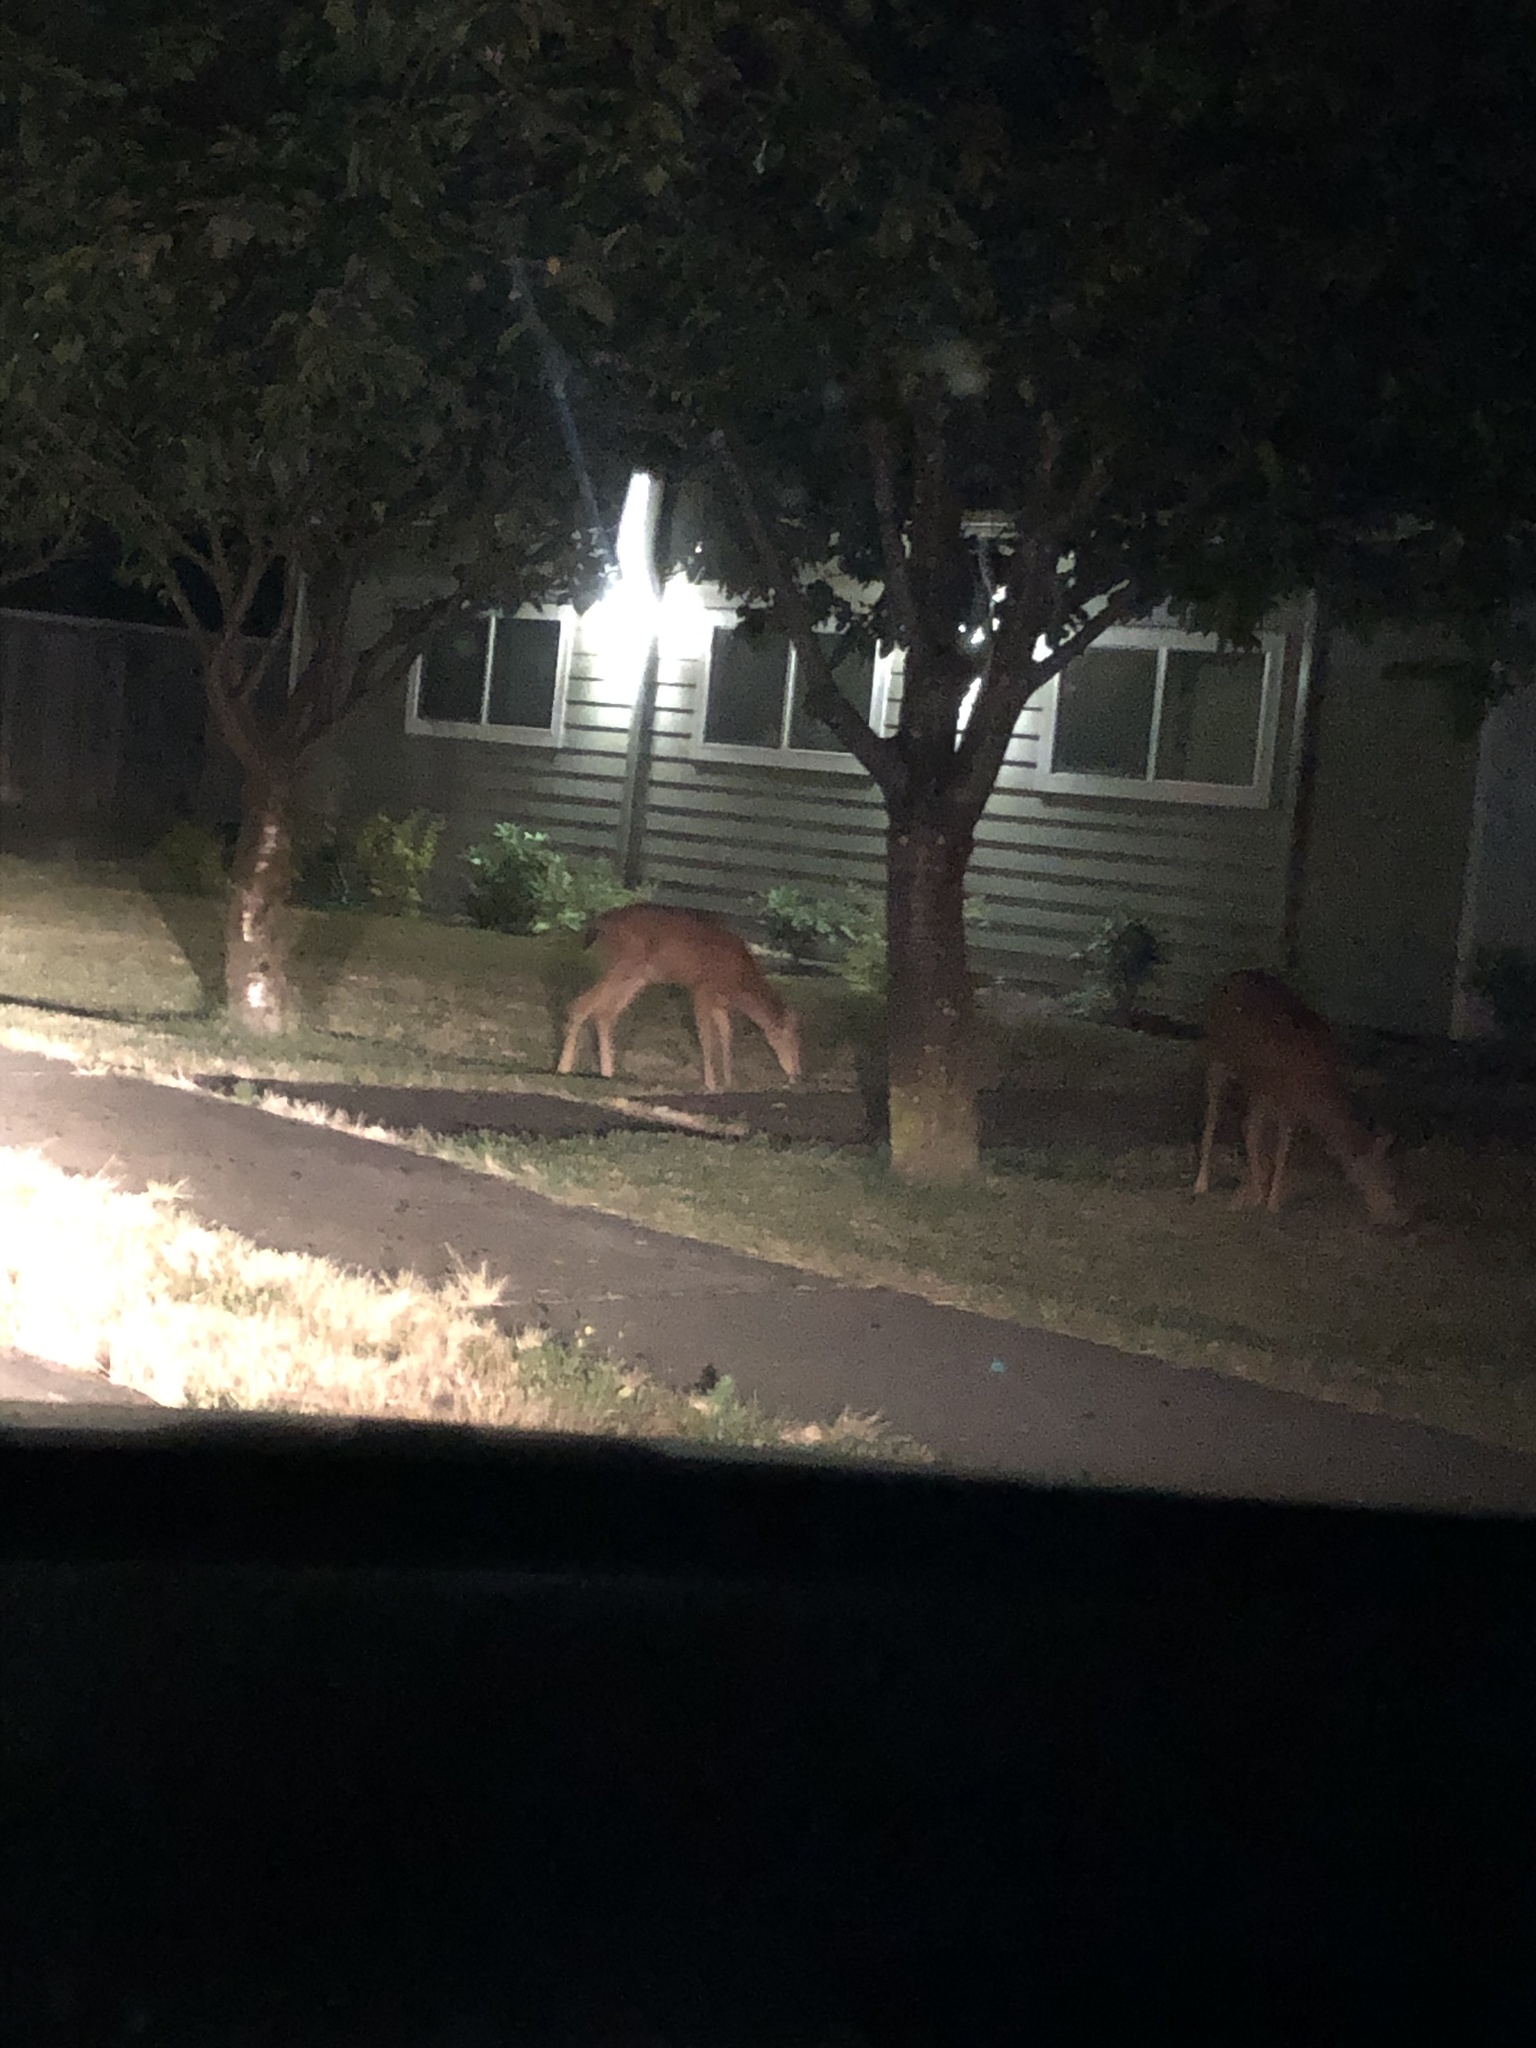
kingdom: Animalia
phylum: Chordata
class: Mammalia
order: Artiodactyla
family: Cervidae
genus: Odocoileus
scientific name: Odocoileus hemionus
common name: Mule deer
